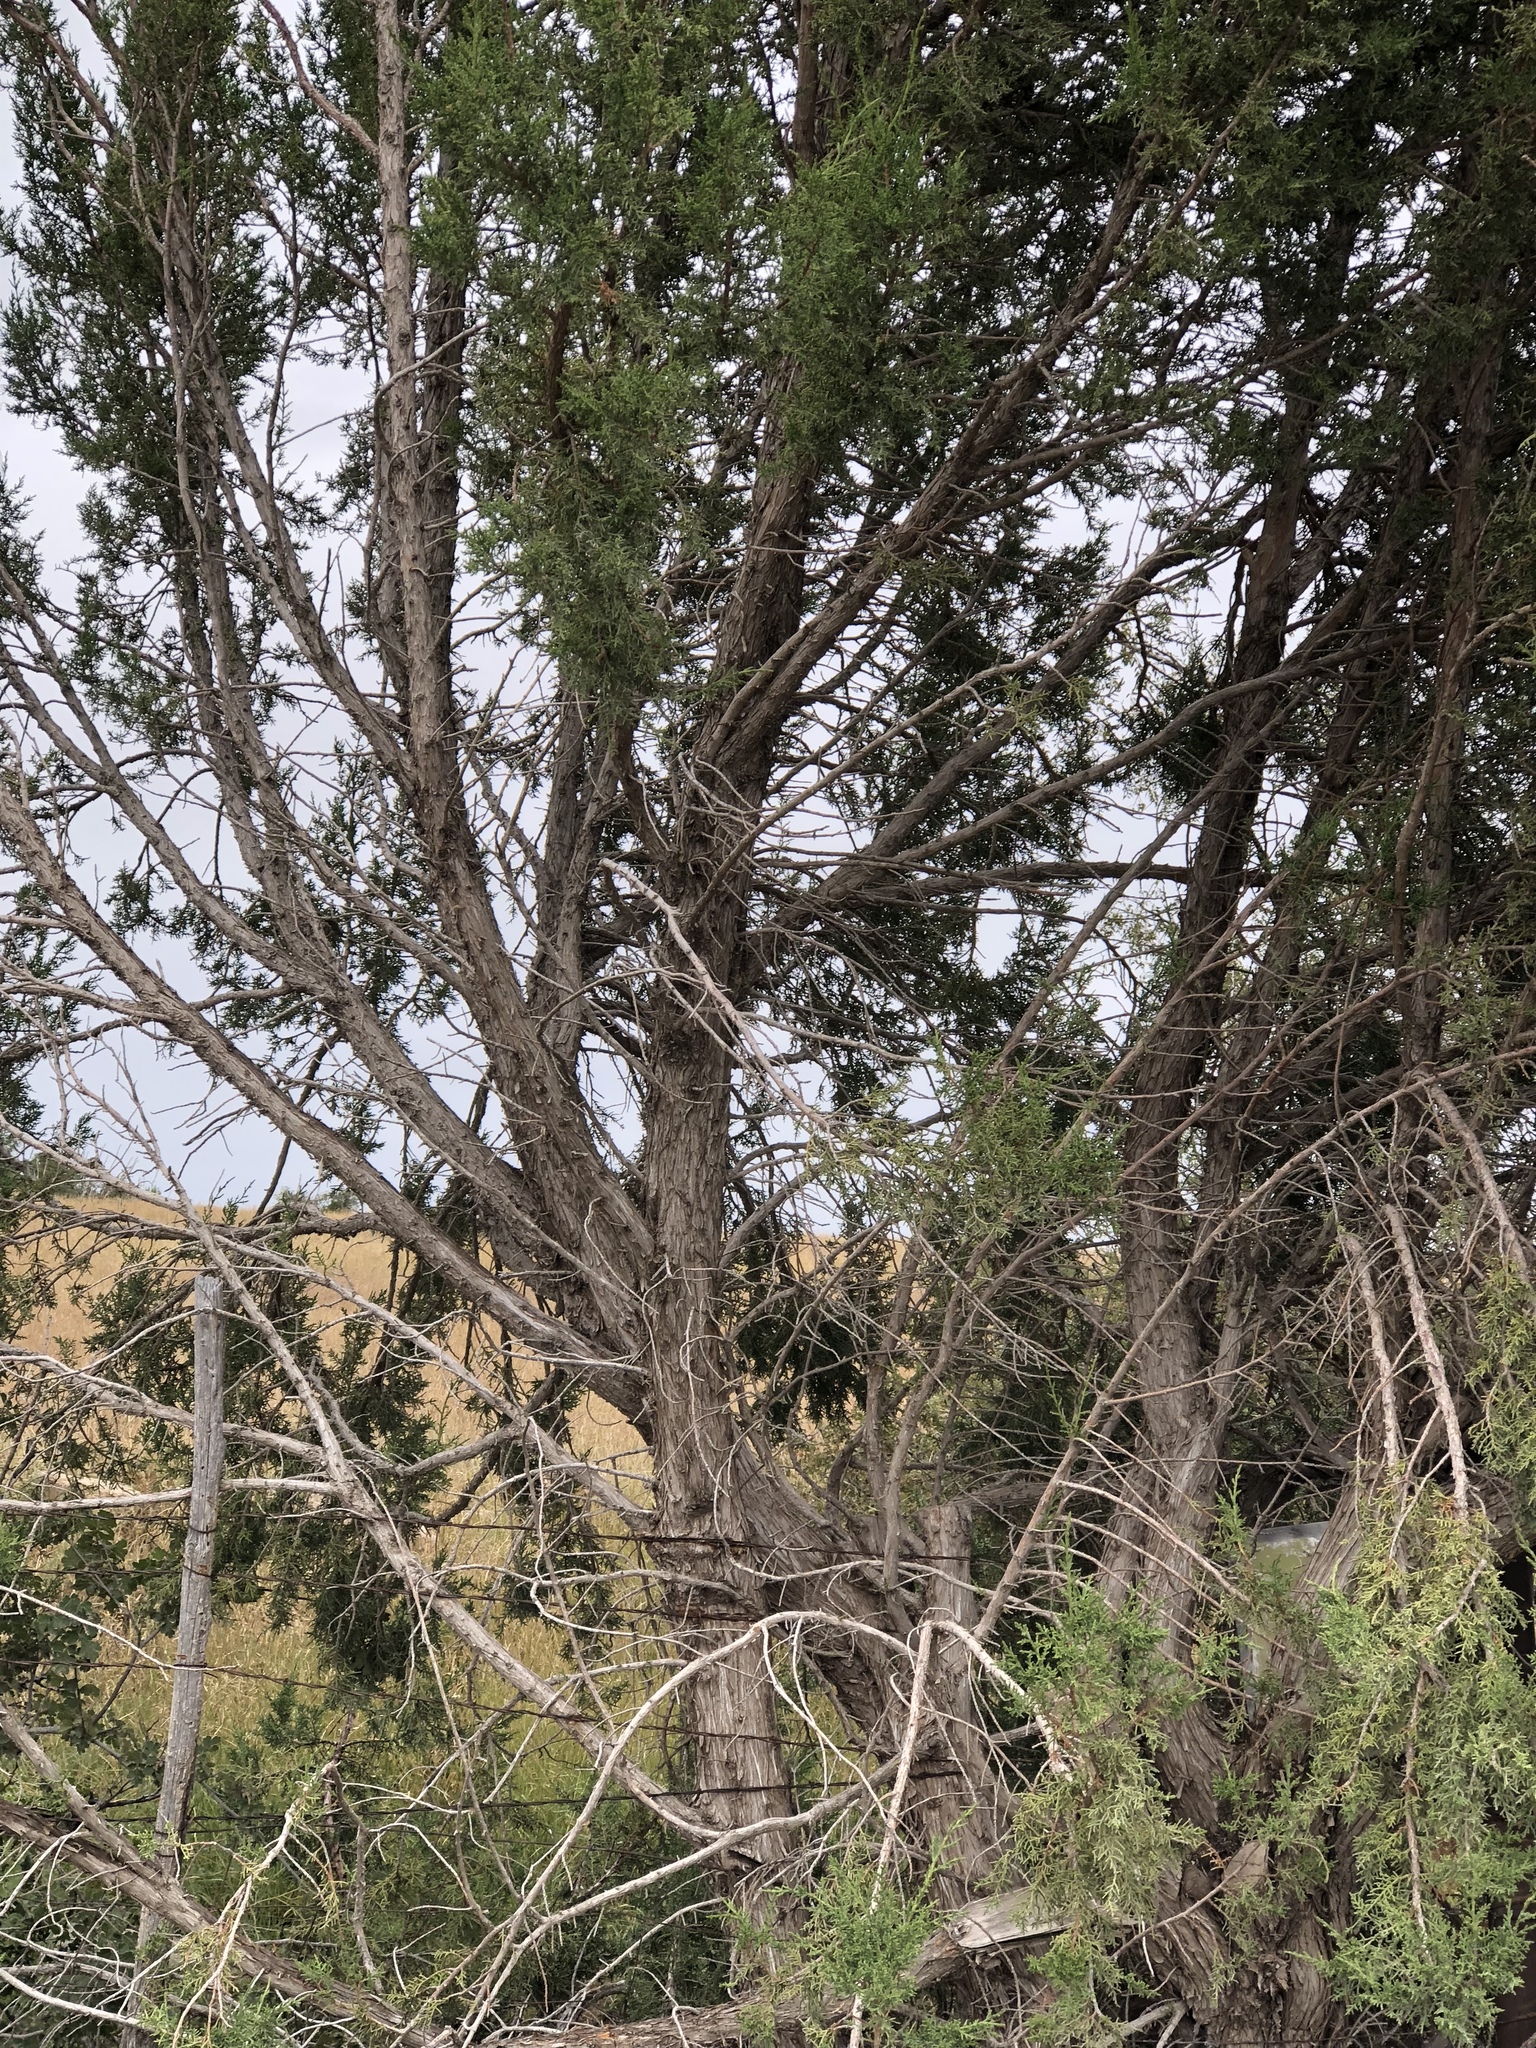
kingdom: Plantae
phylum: Tracheophyta
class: Pinopsida
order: Pinales
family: Cupressaceae
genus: Juniperus
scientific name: Juniperus monosperma
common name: One-seed juniper
